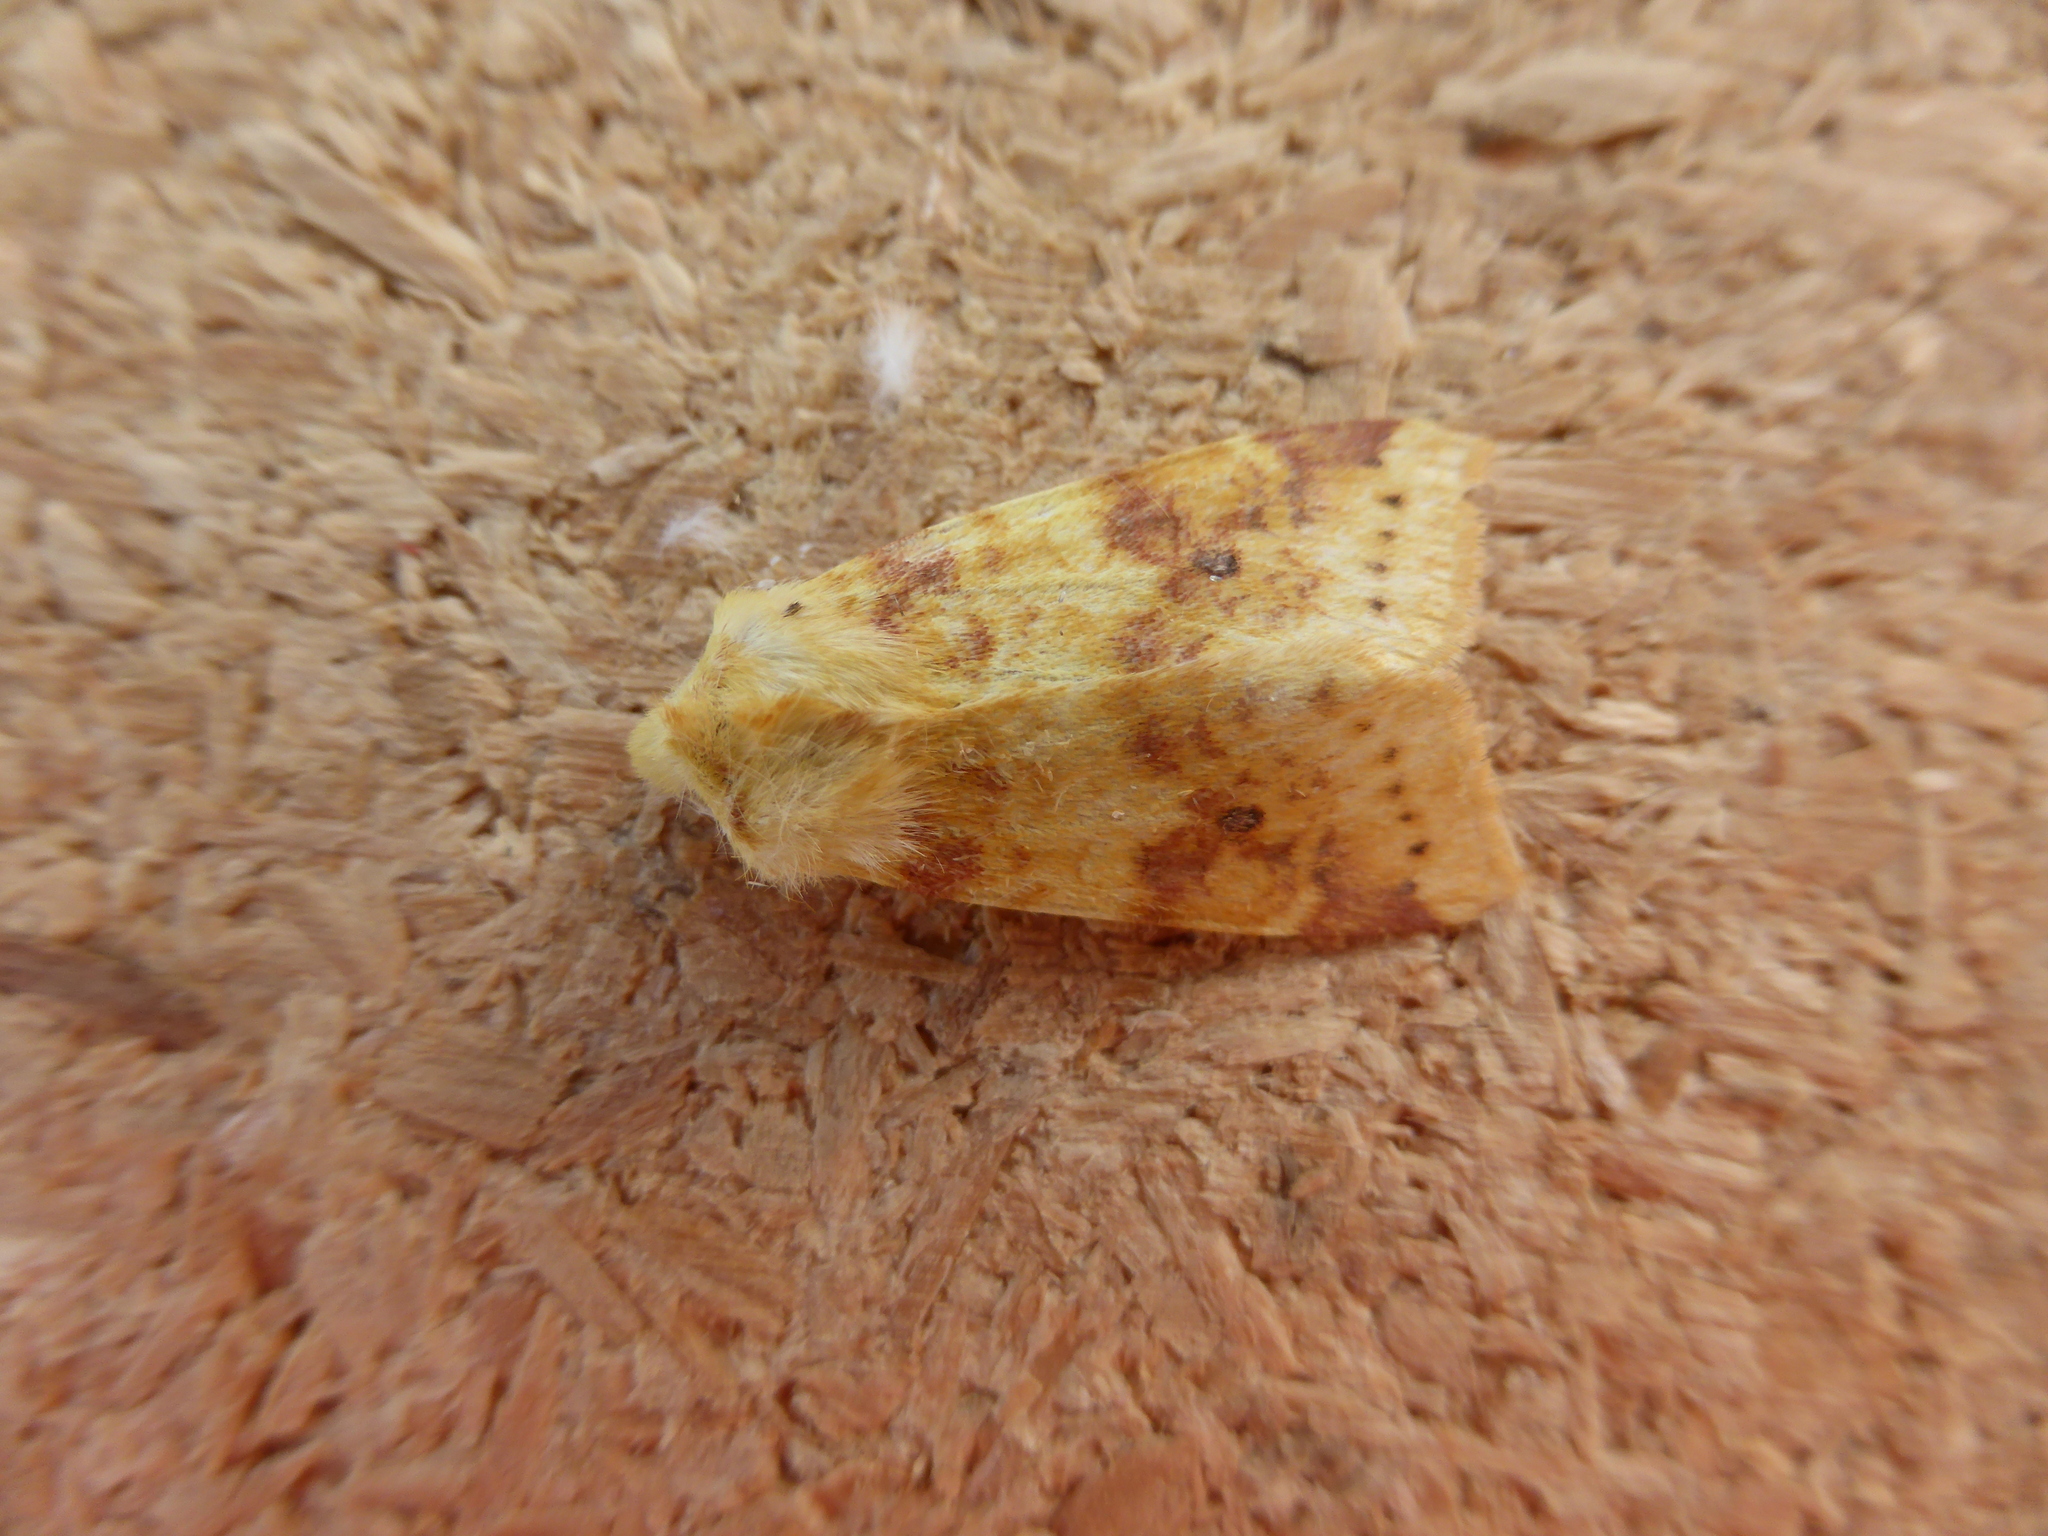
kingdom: Animalia
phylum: Arthropoda
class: Insecta
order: Lepidoptera
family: Noctuidae
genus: Xanthia
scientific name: Xanthia icteritia
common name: The sallow
